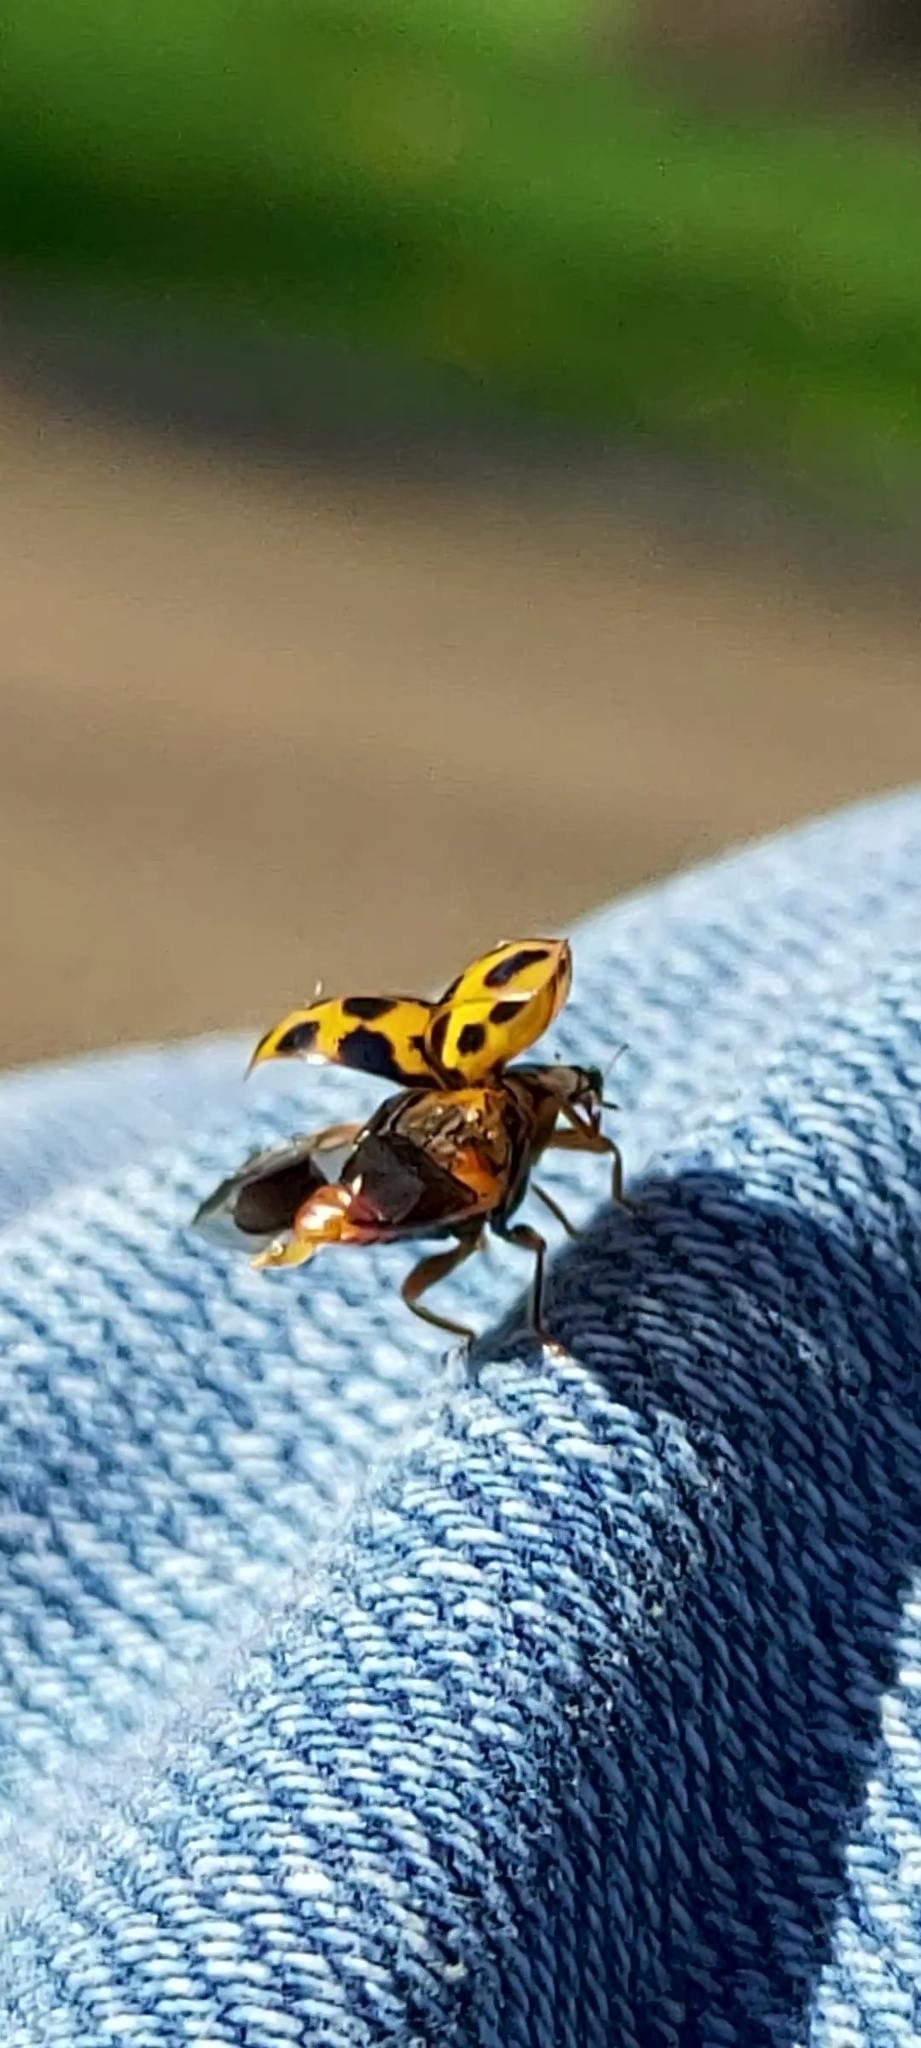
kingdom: Animalia
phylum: Arthropoda
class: Insecta
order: Coleoptera
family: Coccinellidae
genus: Harmonia
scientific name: Harmonia axyridis
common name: Harlequin ladybird
